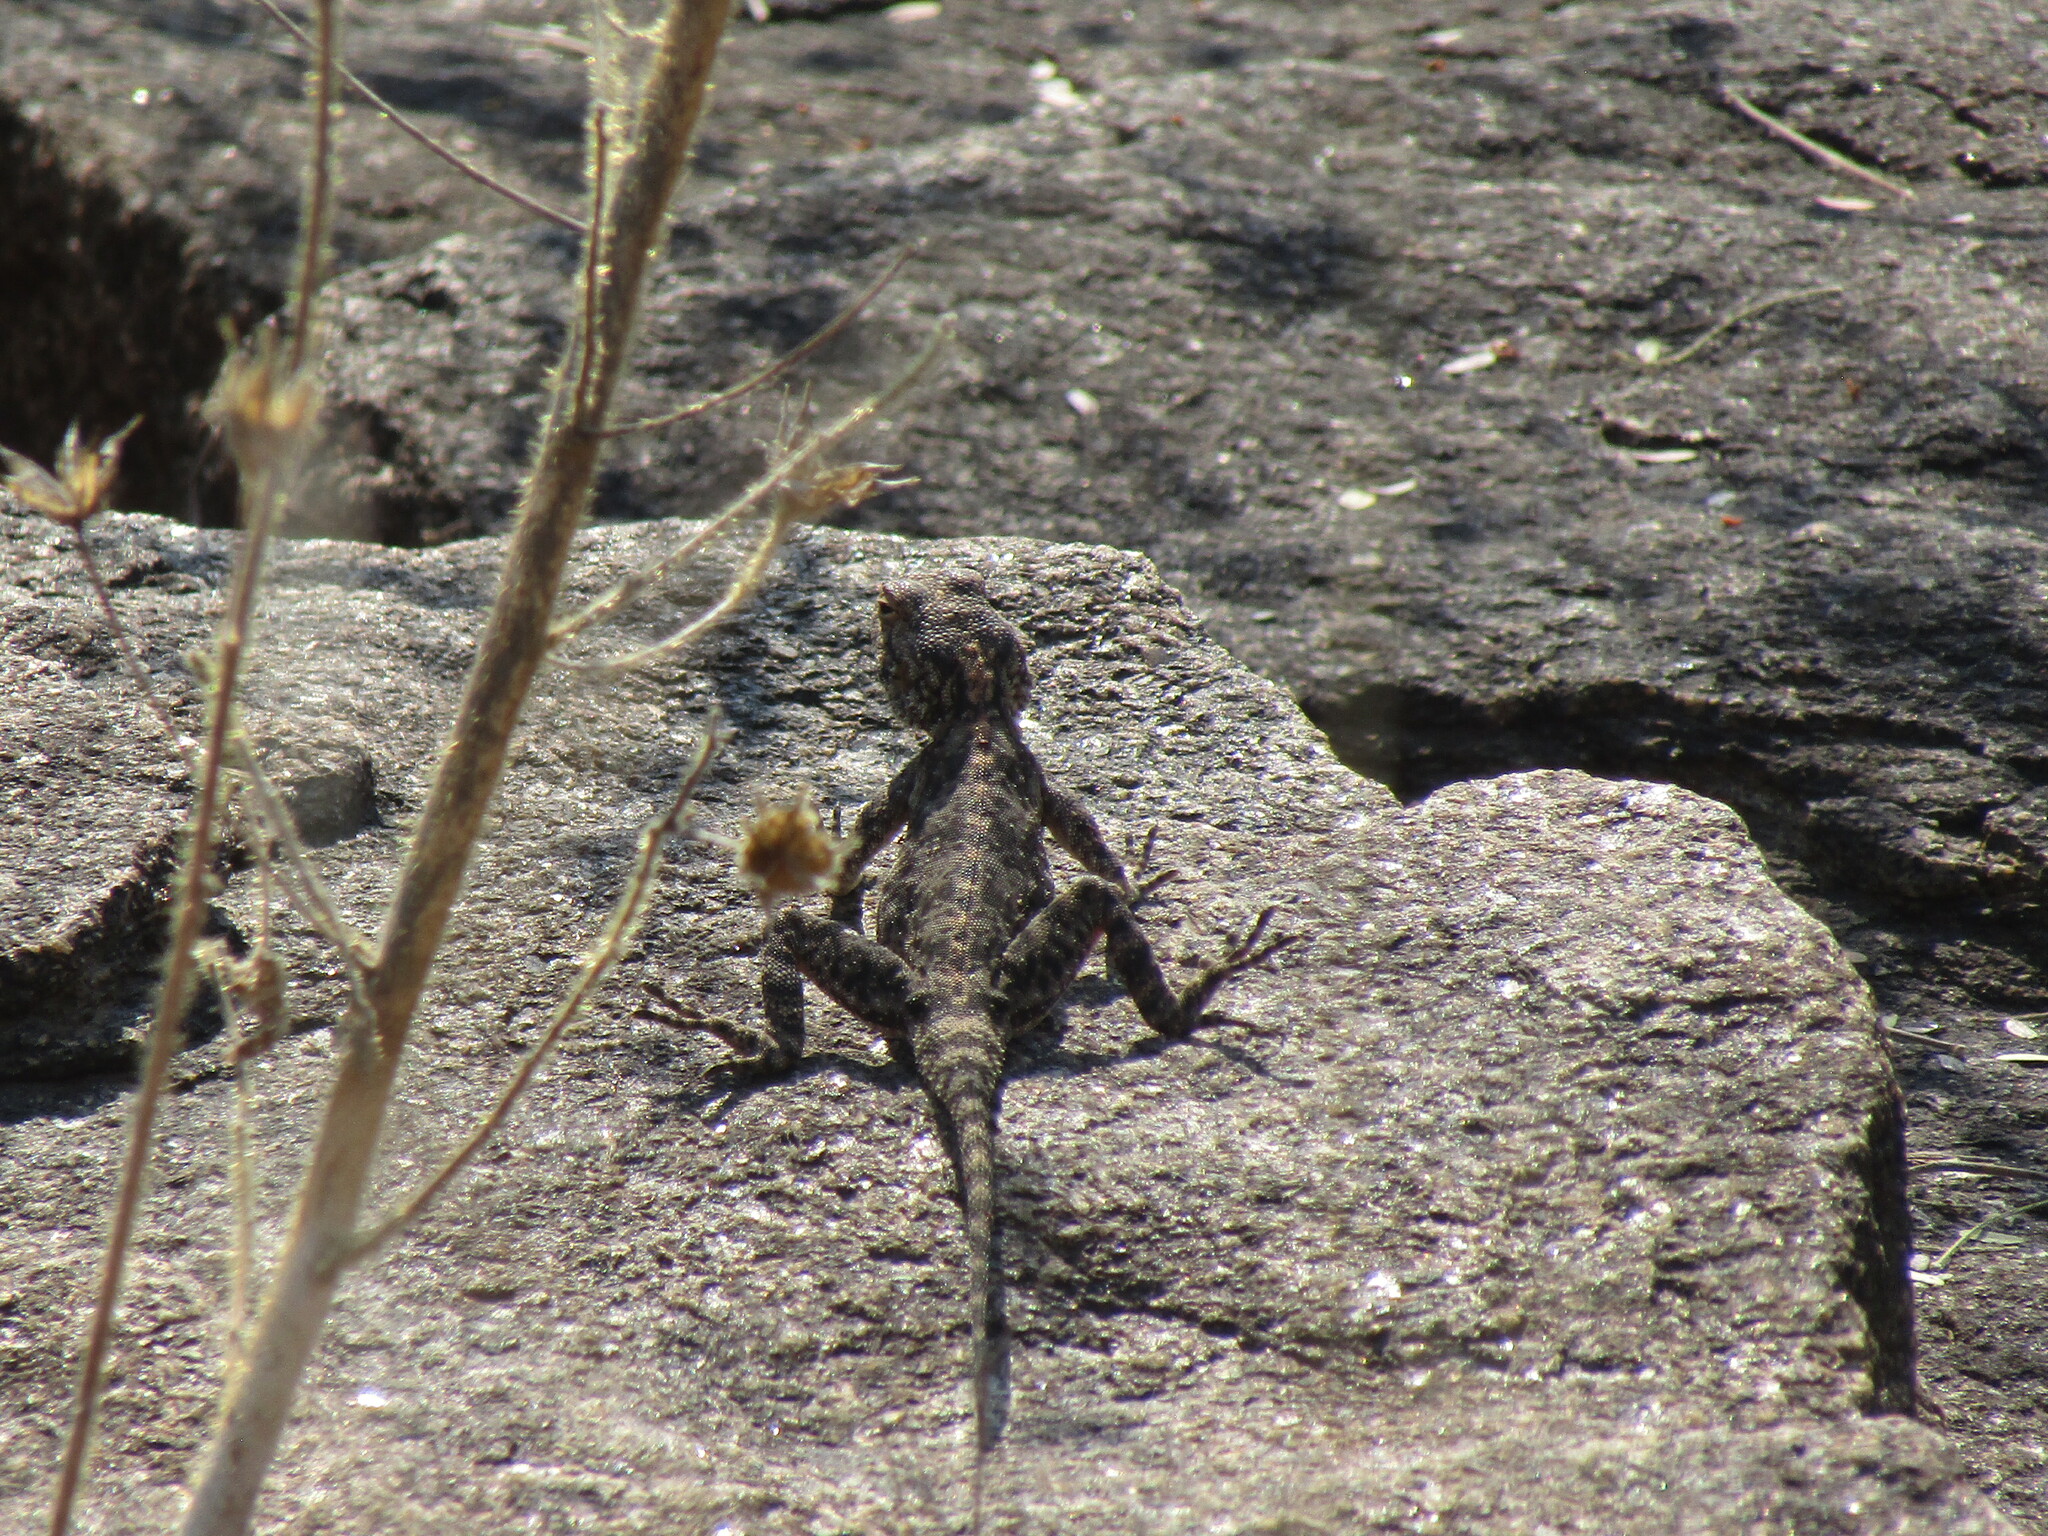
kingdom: Animalia
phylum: Chordata
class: Squamata
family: Agamidae
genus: Agama
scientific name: Agama atra
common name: Southern african rock agama
